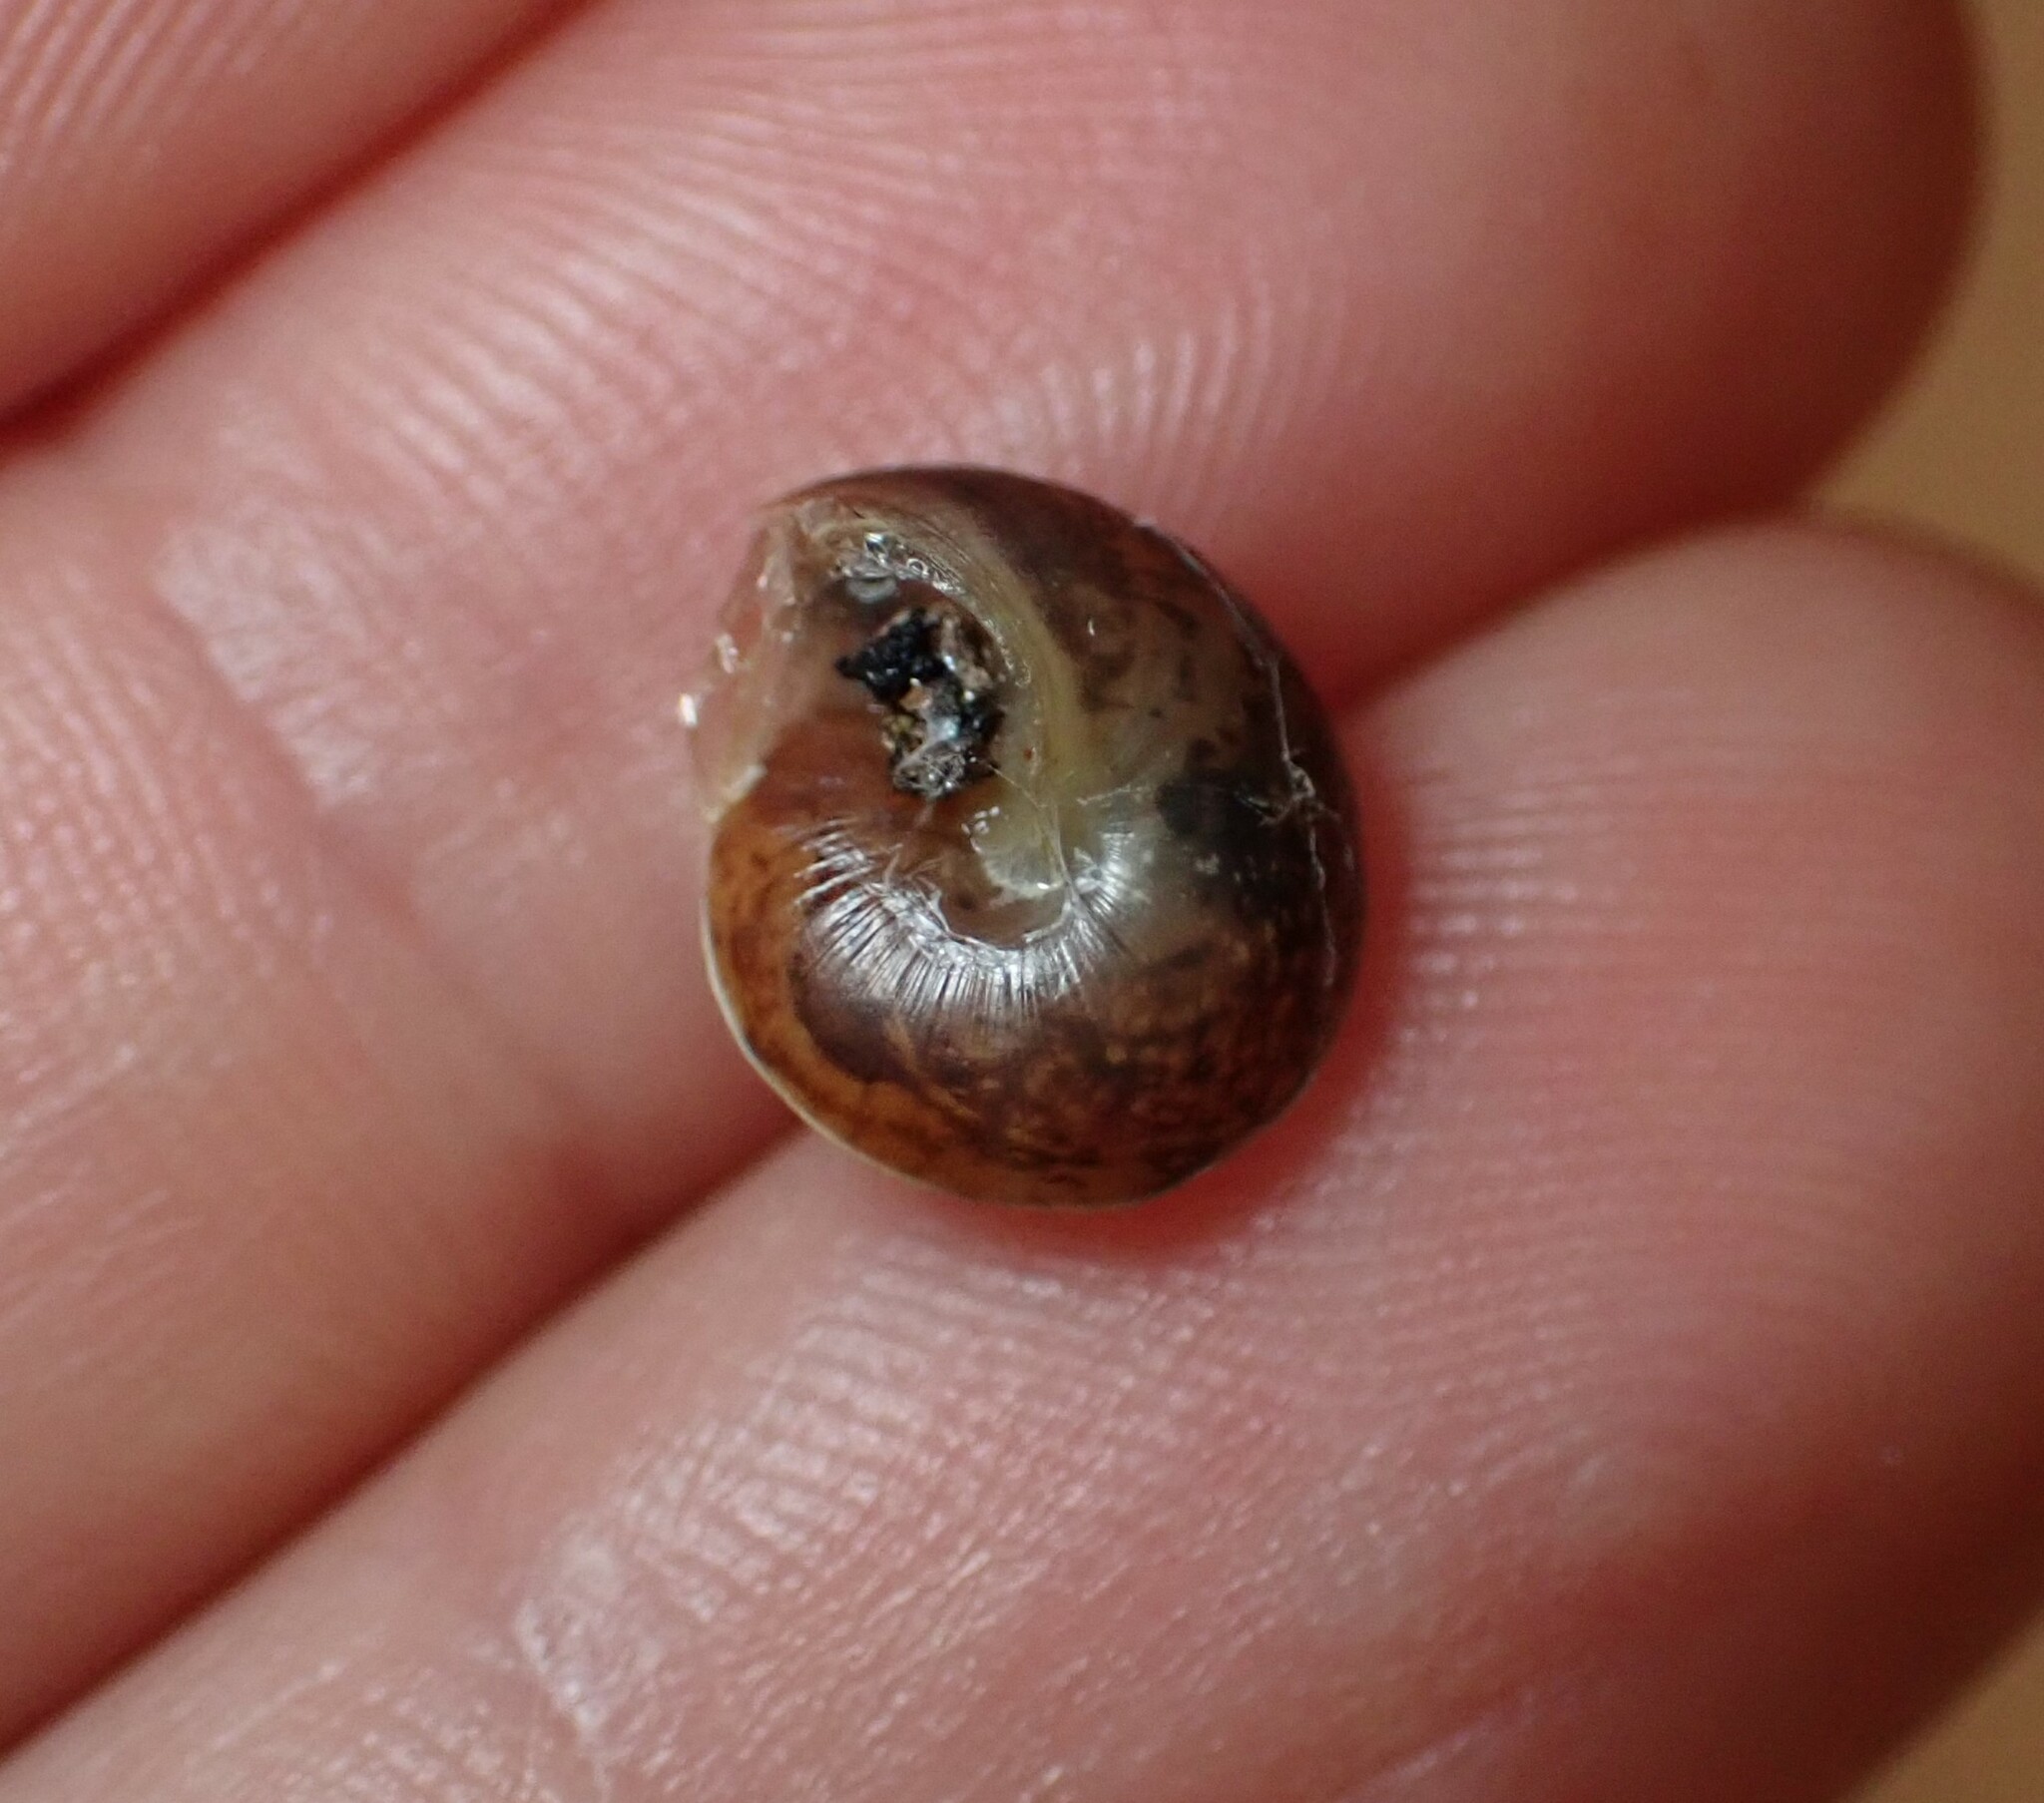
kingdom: Animalia
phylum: Mollusca
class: Gastropoda
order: Stylommatophora
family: Hygromiidae
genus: Hygromia
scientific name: Hygromia cinctella
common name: Girdled snail
